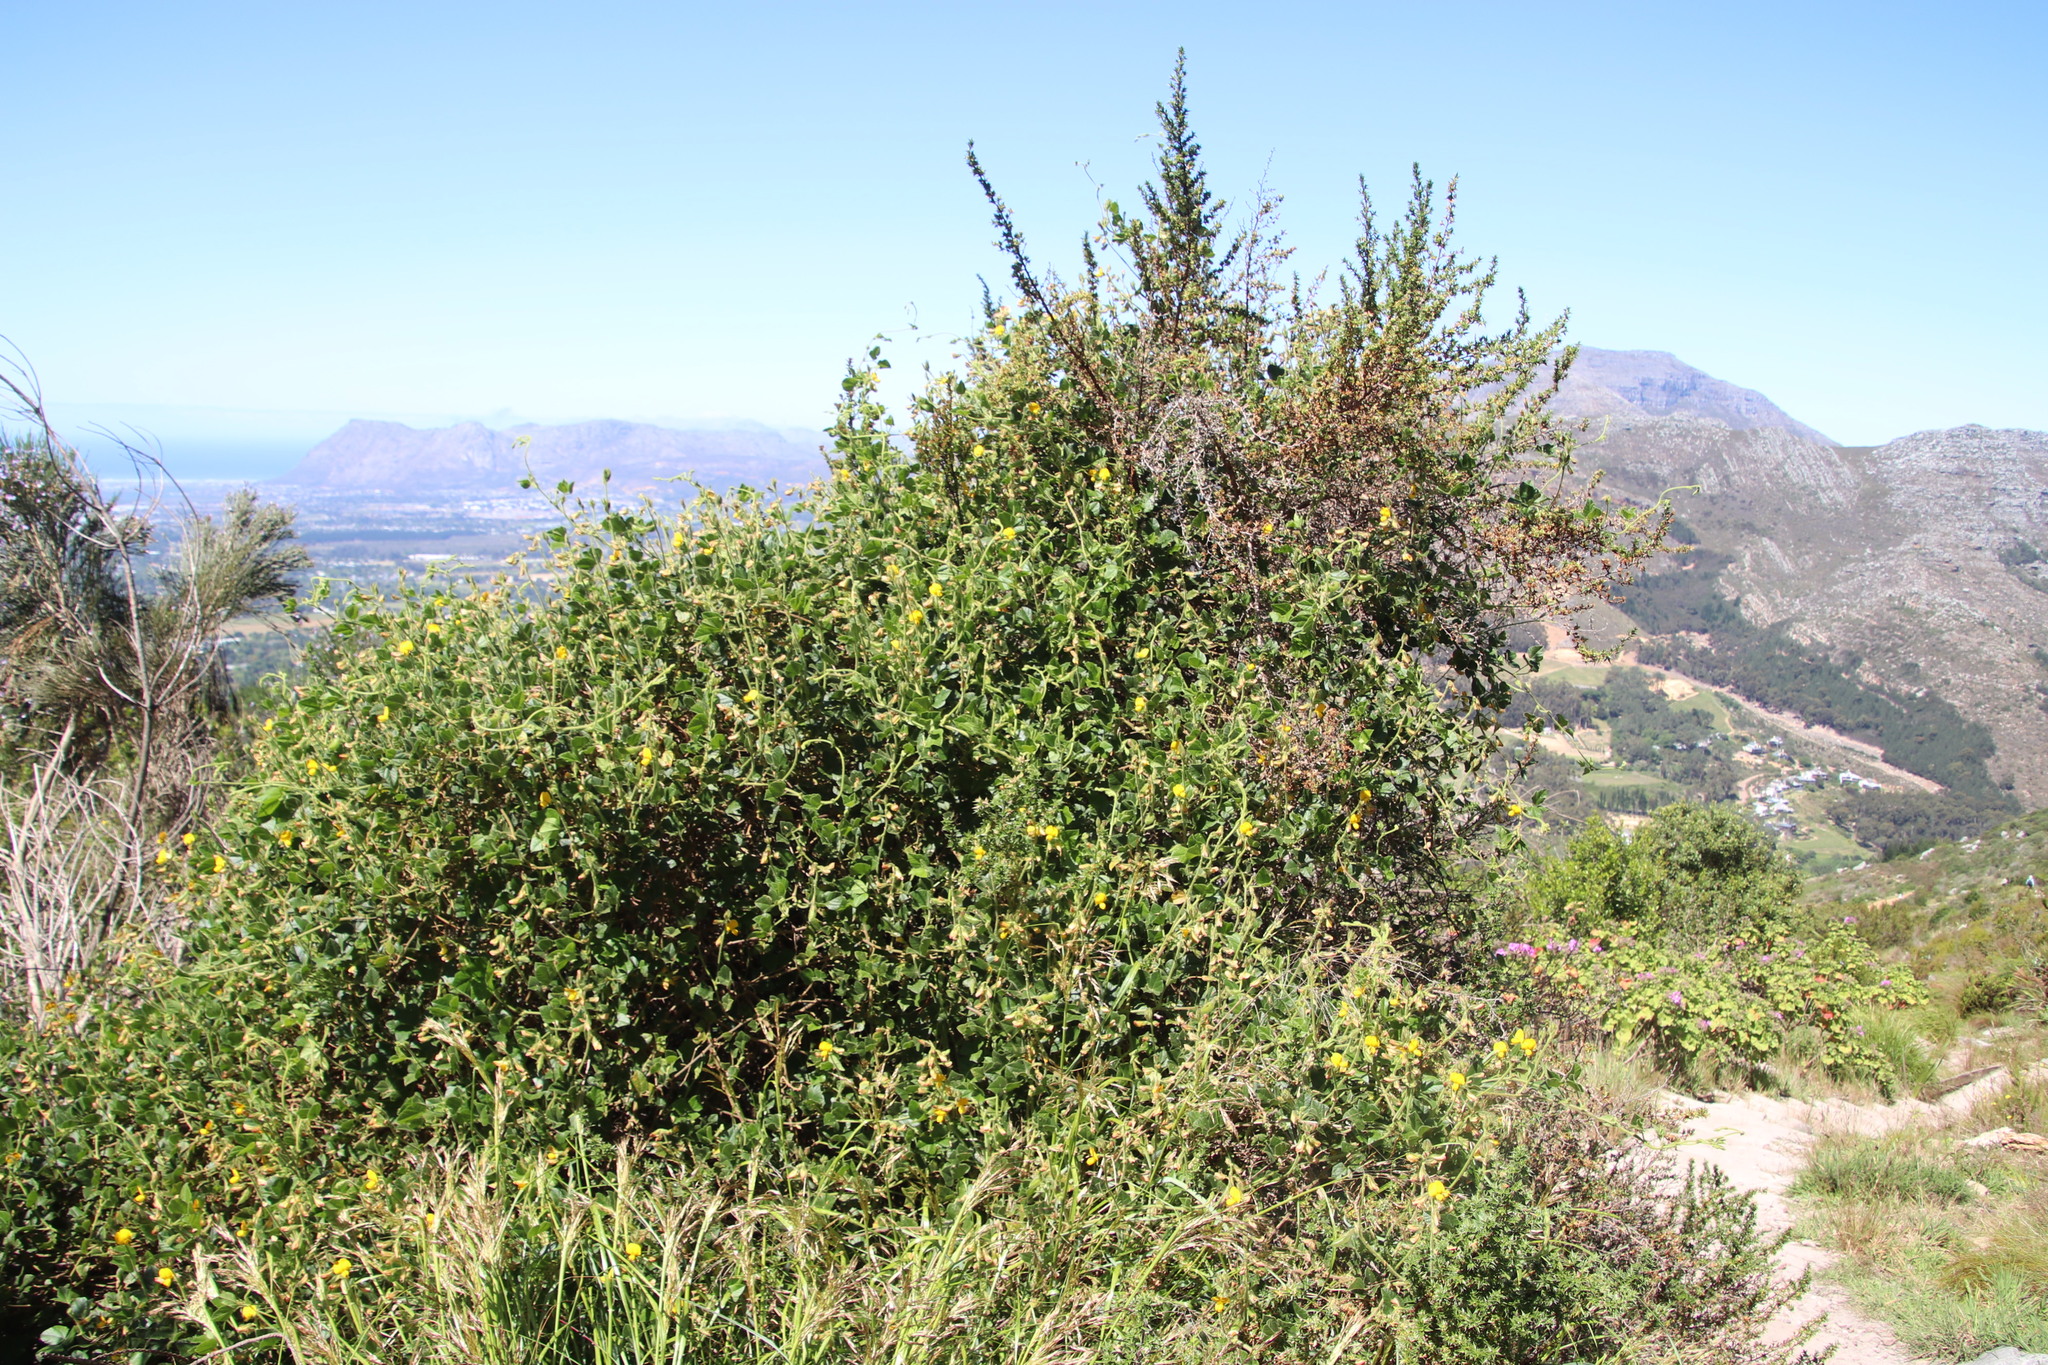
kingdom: Plantae
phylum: Tracheophyta
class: Magnoliopsida
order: Fabales
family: Fabaceae
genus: Bolusafra
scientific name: Bolusafra bituminosa
